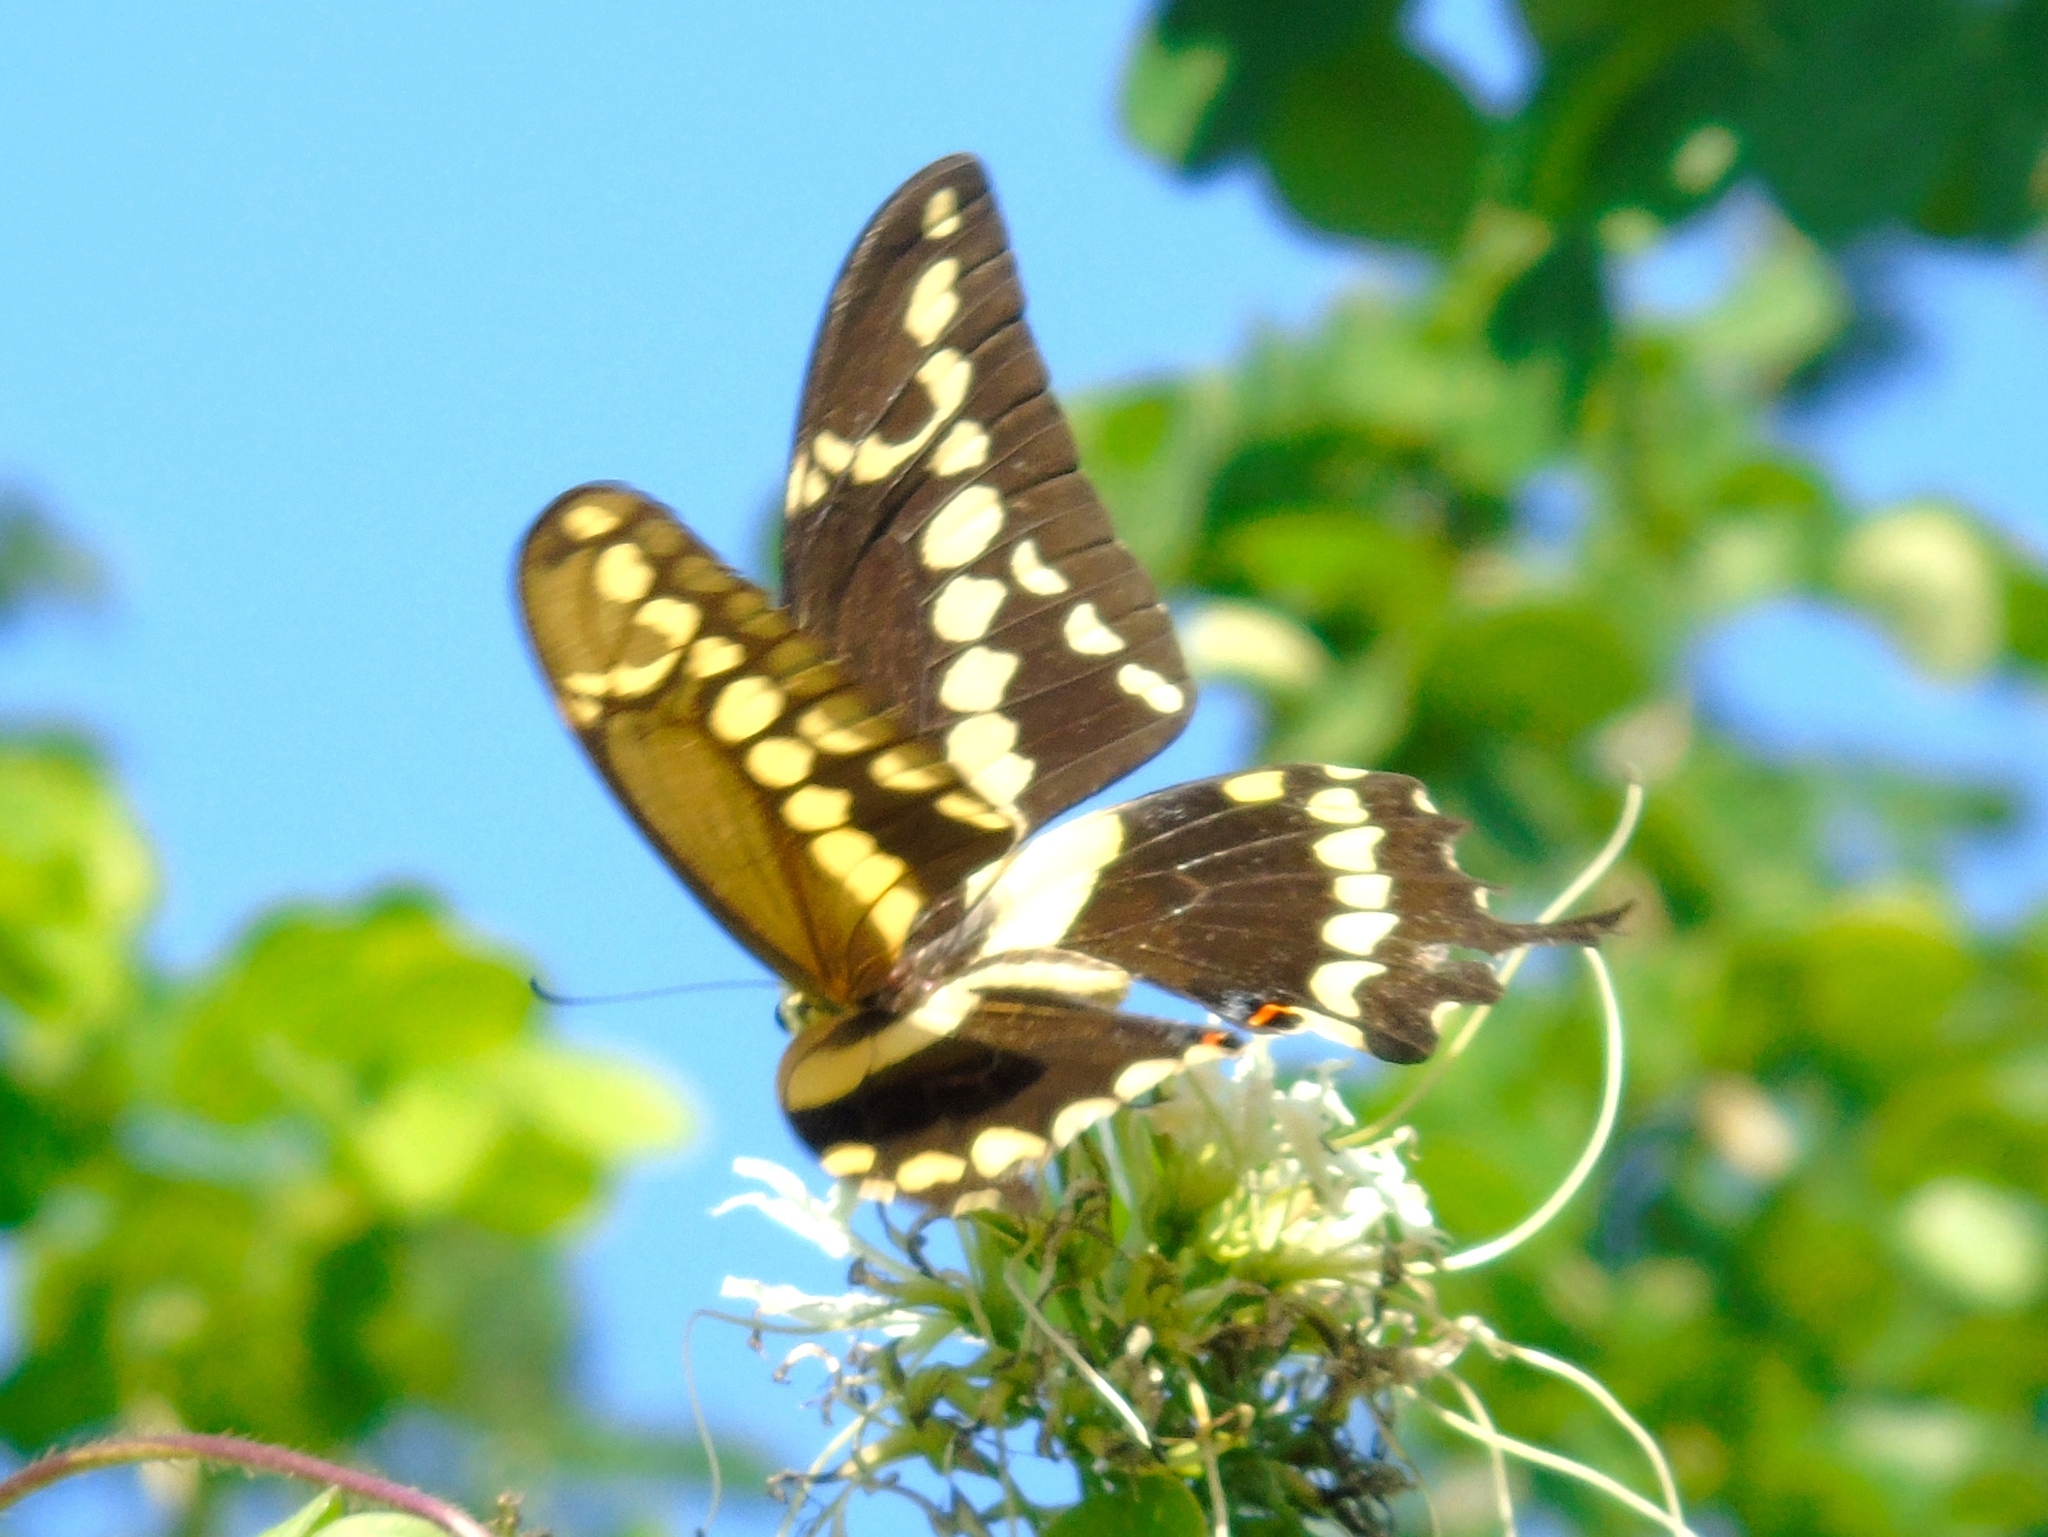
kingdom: Animalia
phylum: Arthropoda
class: Insecta
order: Lepidoptera
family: Papilionidae
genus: Papilio
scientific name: Papilio rumiko
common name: Western giant swallowtail
